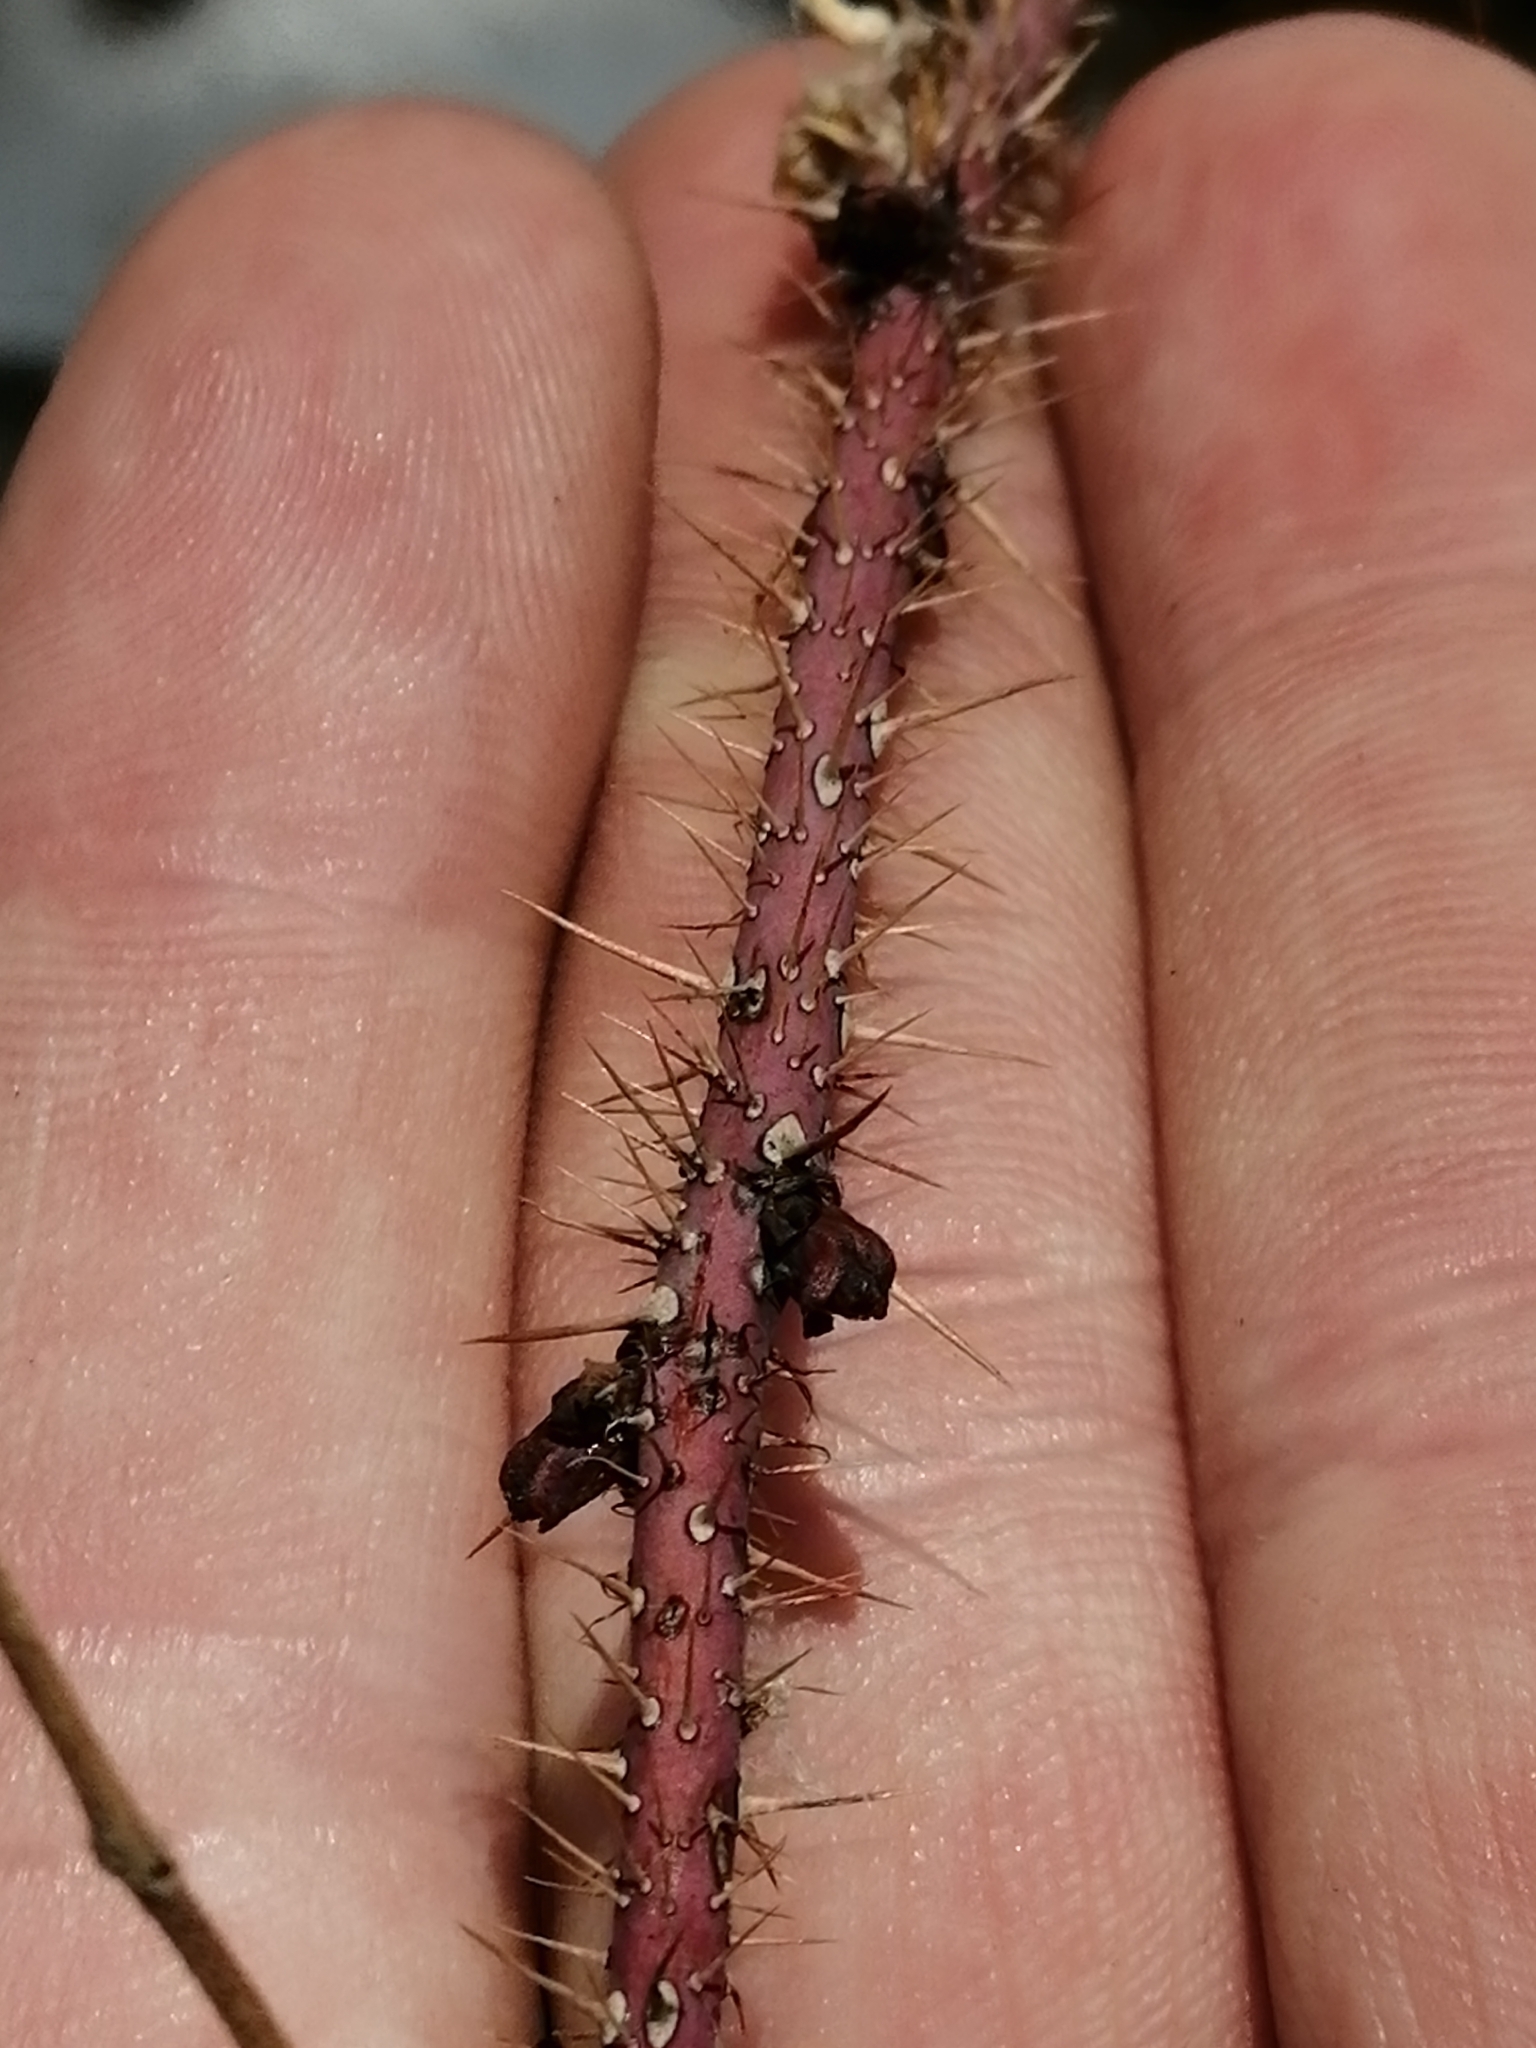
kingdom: Plantae
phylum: Tracheophyta
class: Magnoliopsida
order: Rosales
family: Rosaceae
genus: Rosa
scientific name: Rosa acicularis
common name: Prickly rose
